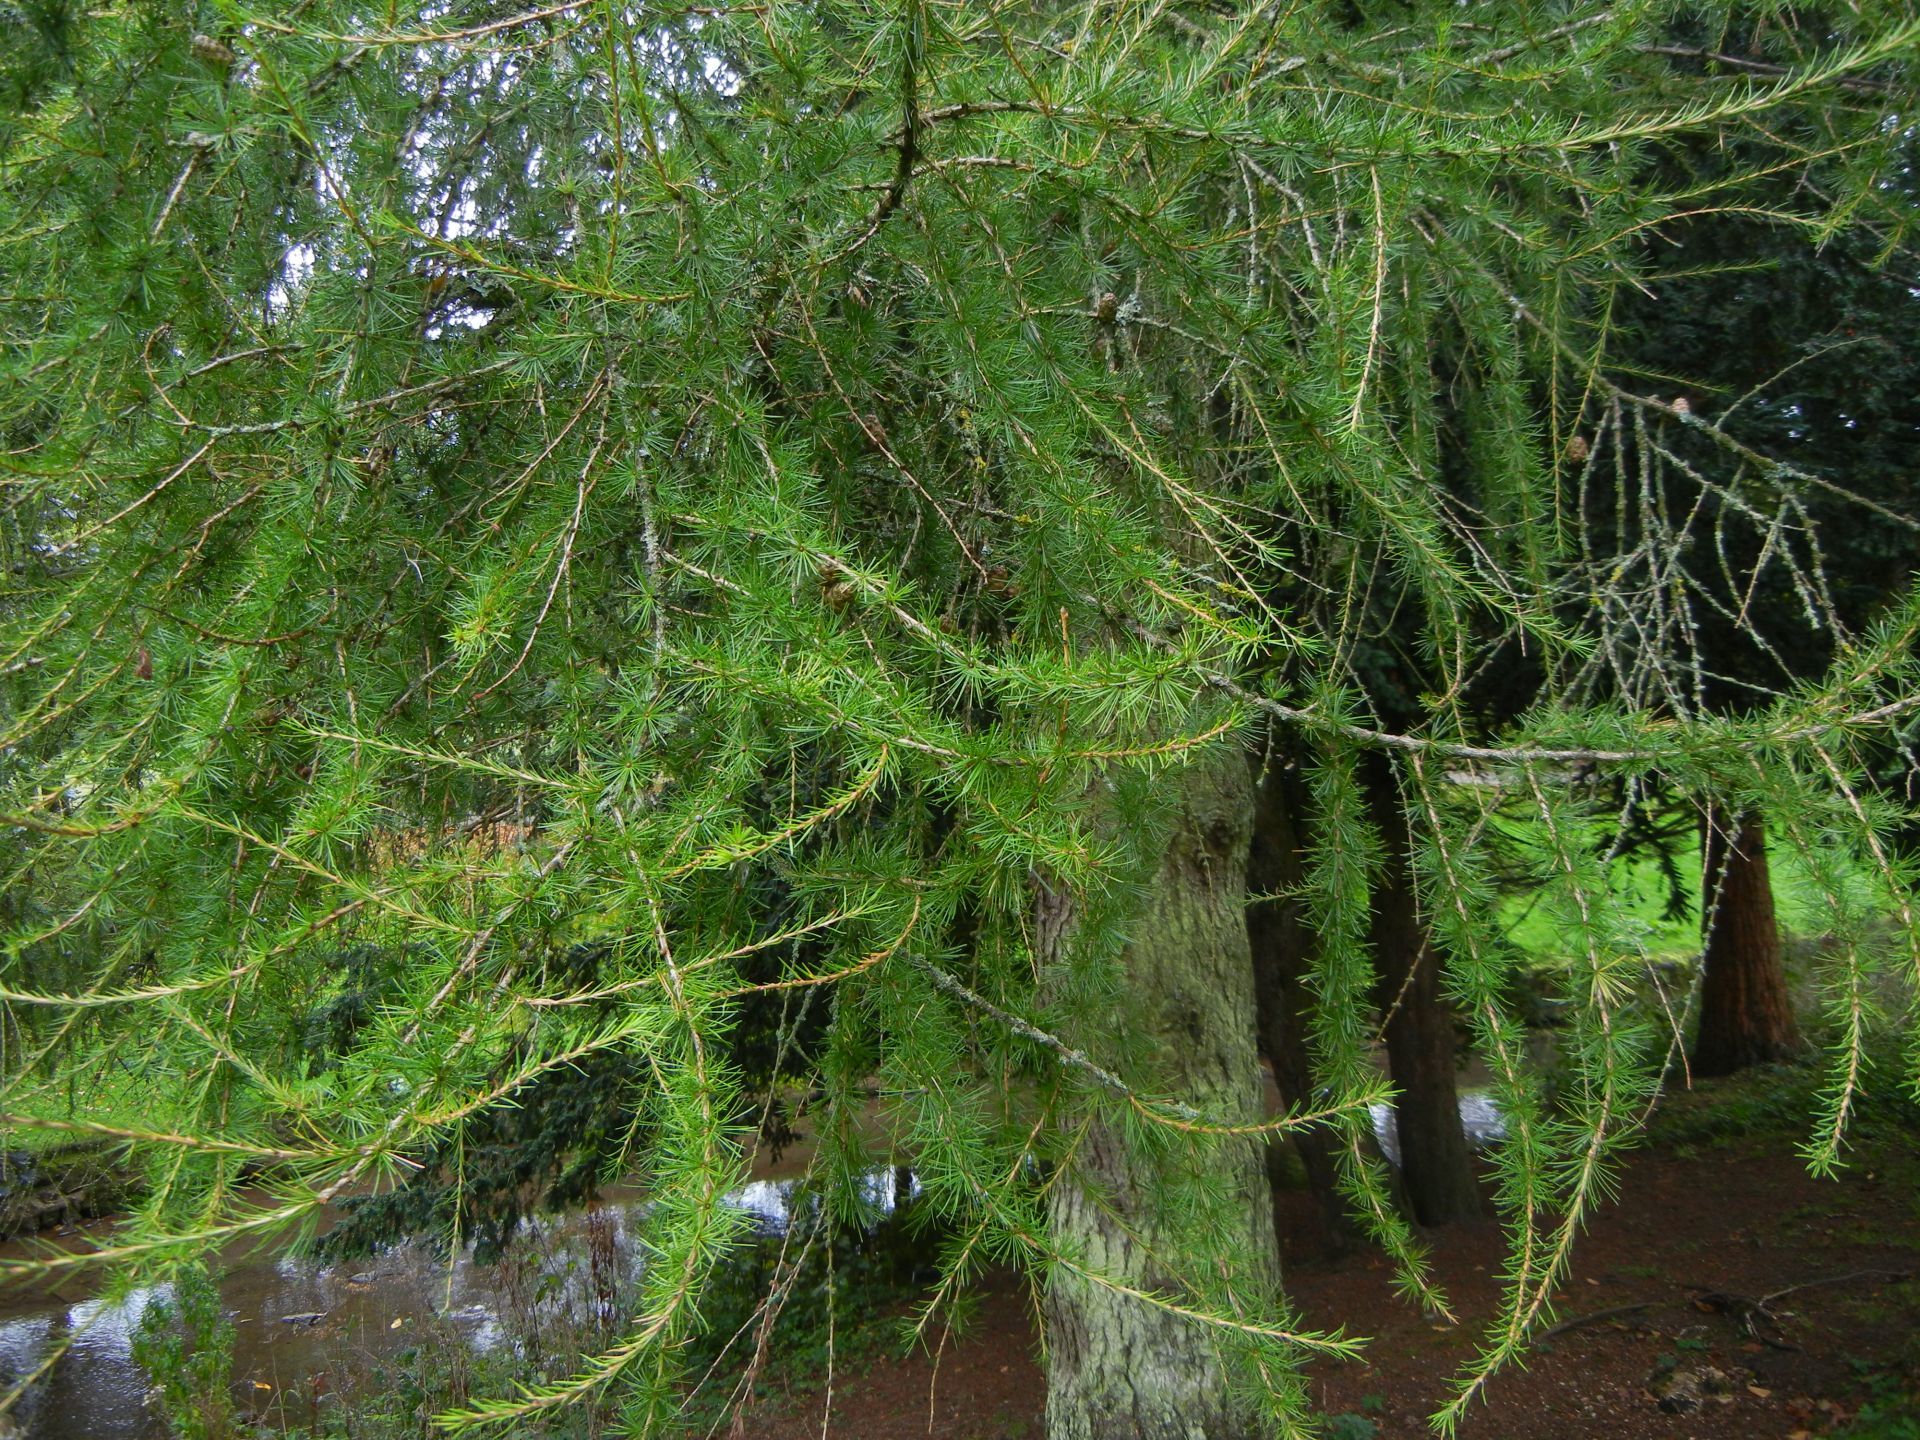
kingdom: Plantae
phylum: Tracheophyta
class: Pinopsida
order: Pinales
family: Pinaceae
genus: Larix
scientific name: Larix decidua
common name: European larch
